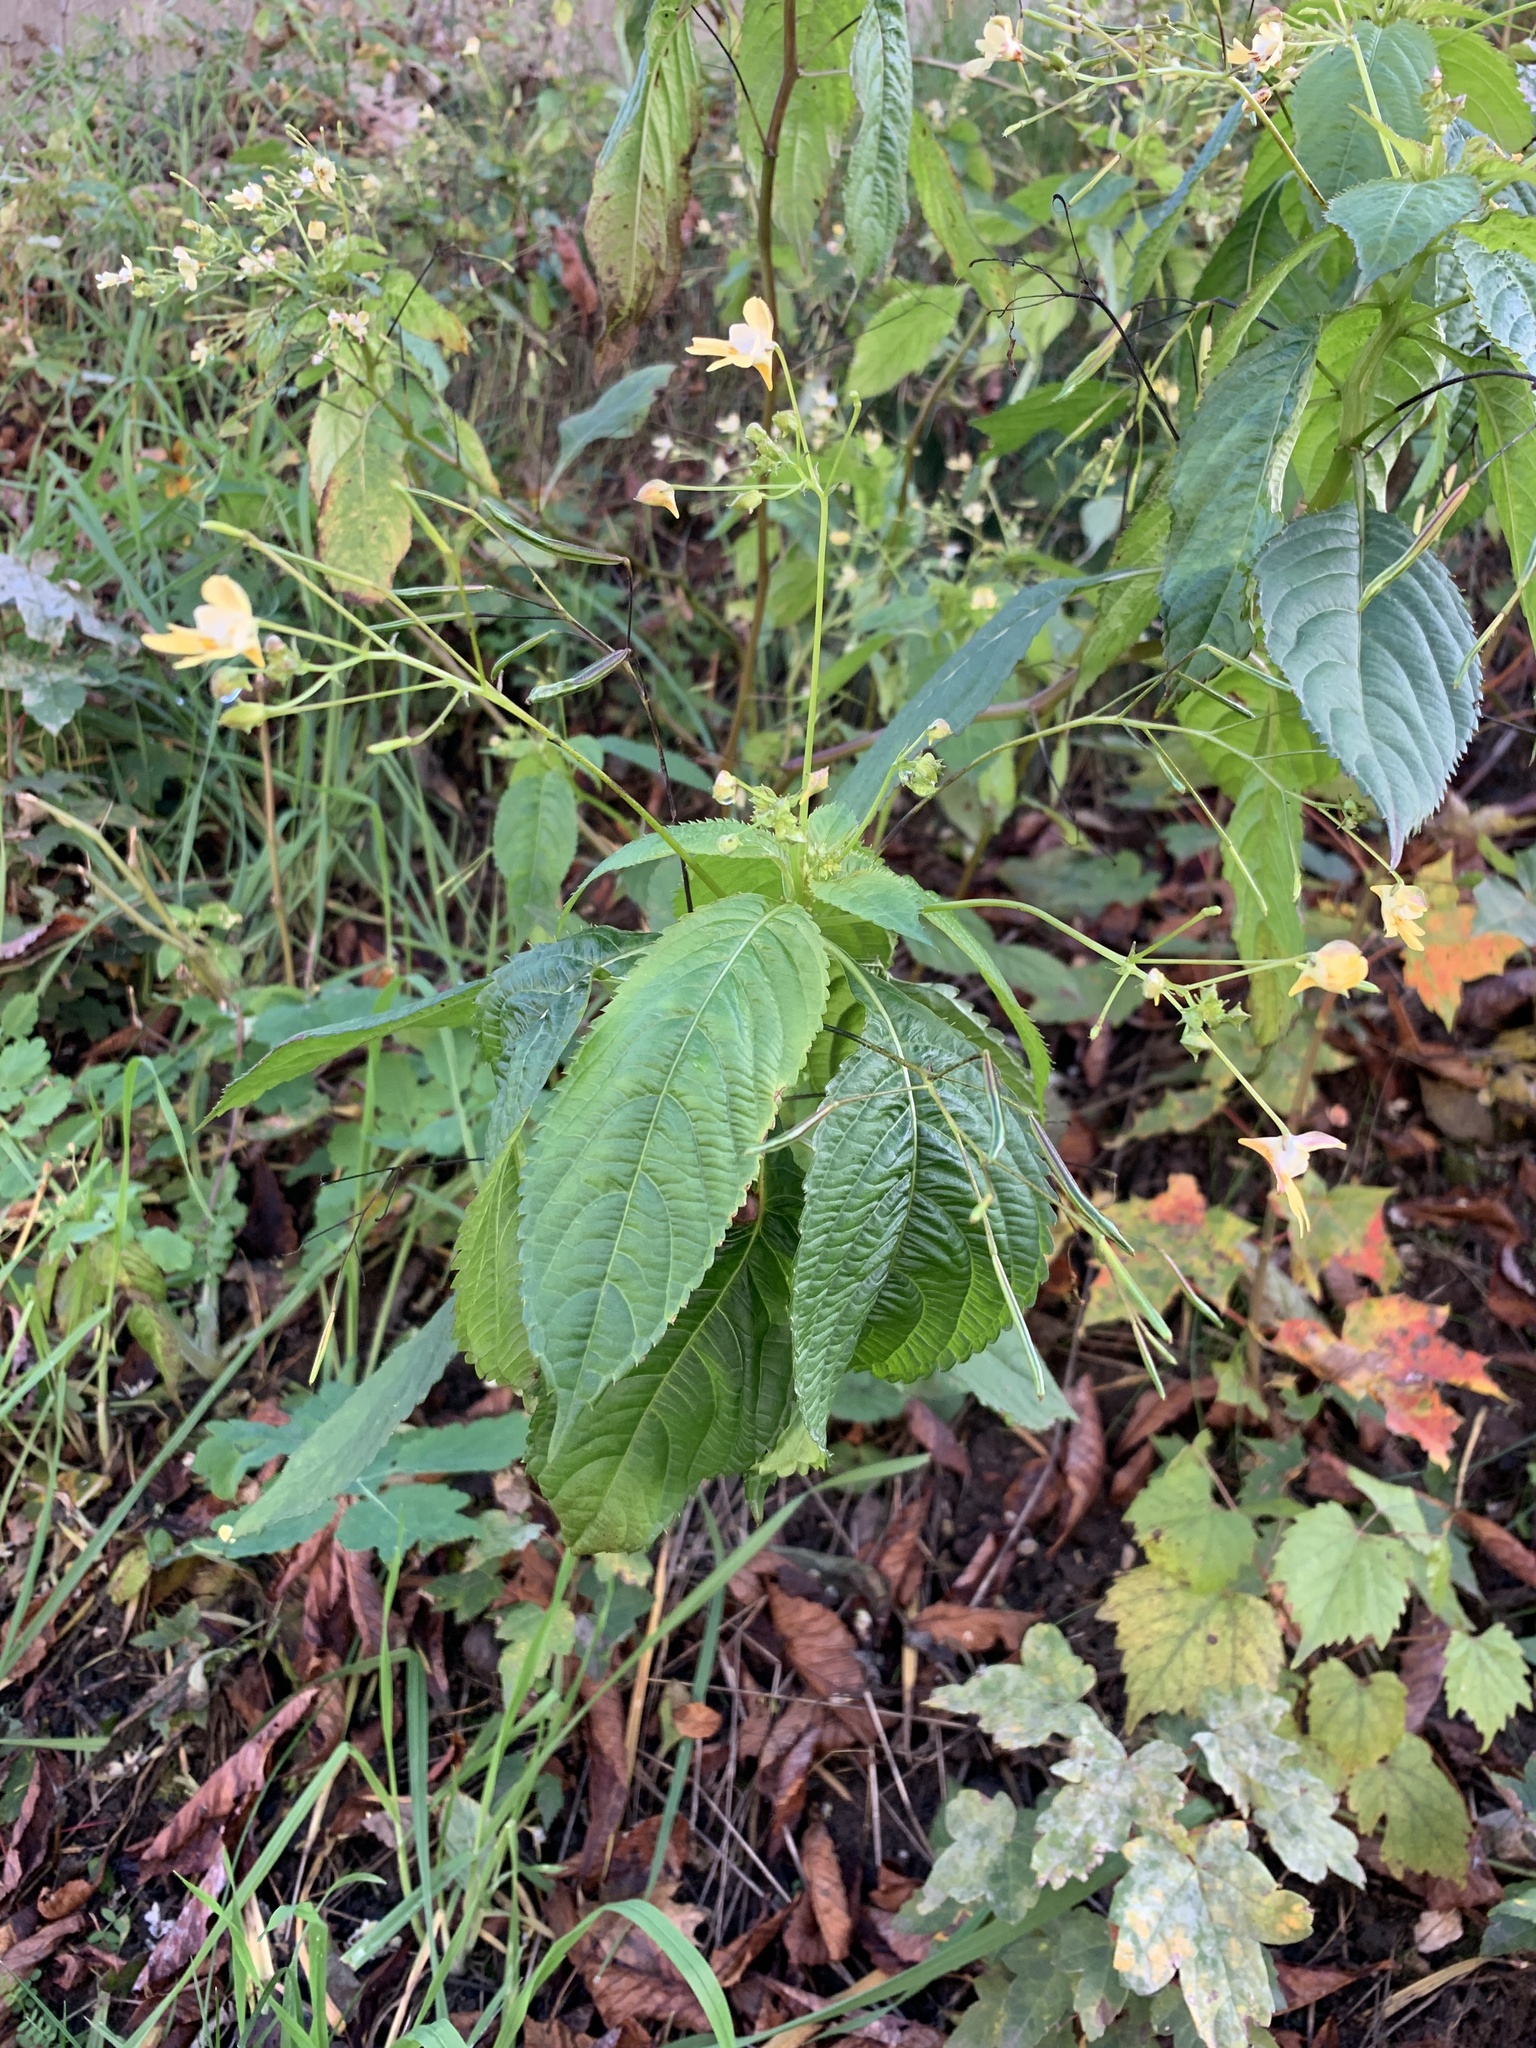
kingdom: Plantae
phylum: Tracheophyta
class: Magnoliopsida
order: Ericales
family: Balsaminaceae
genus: Impatiens
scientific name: Impatiens parviflora
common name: Small balsam
